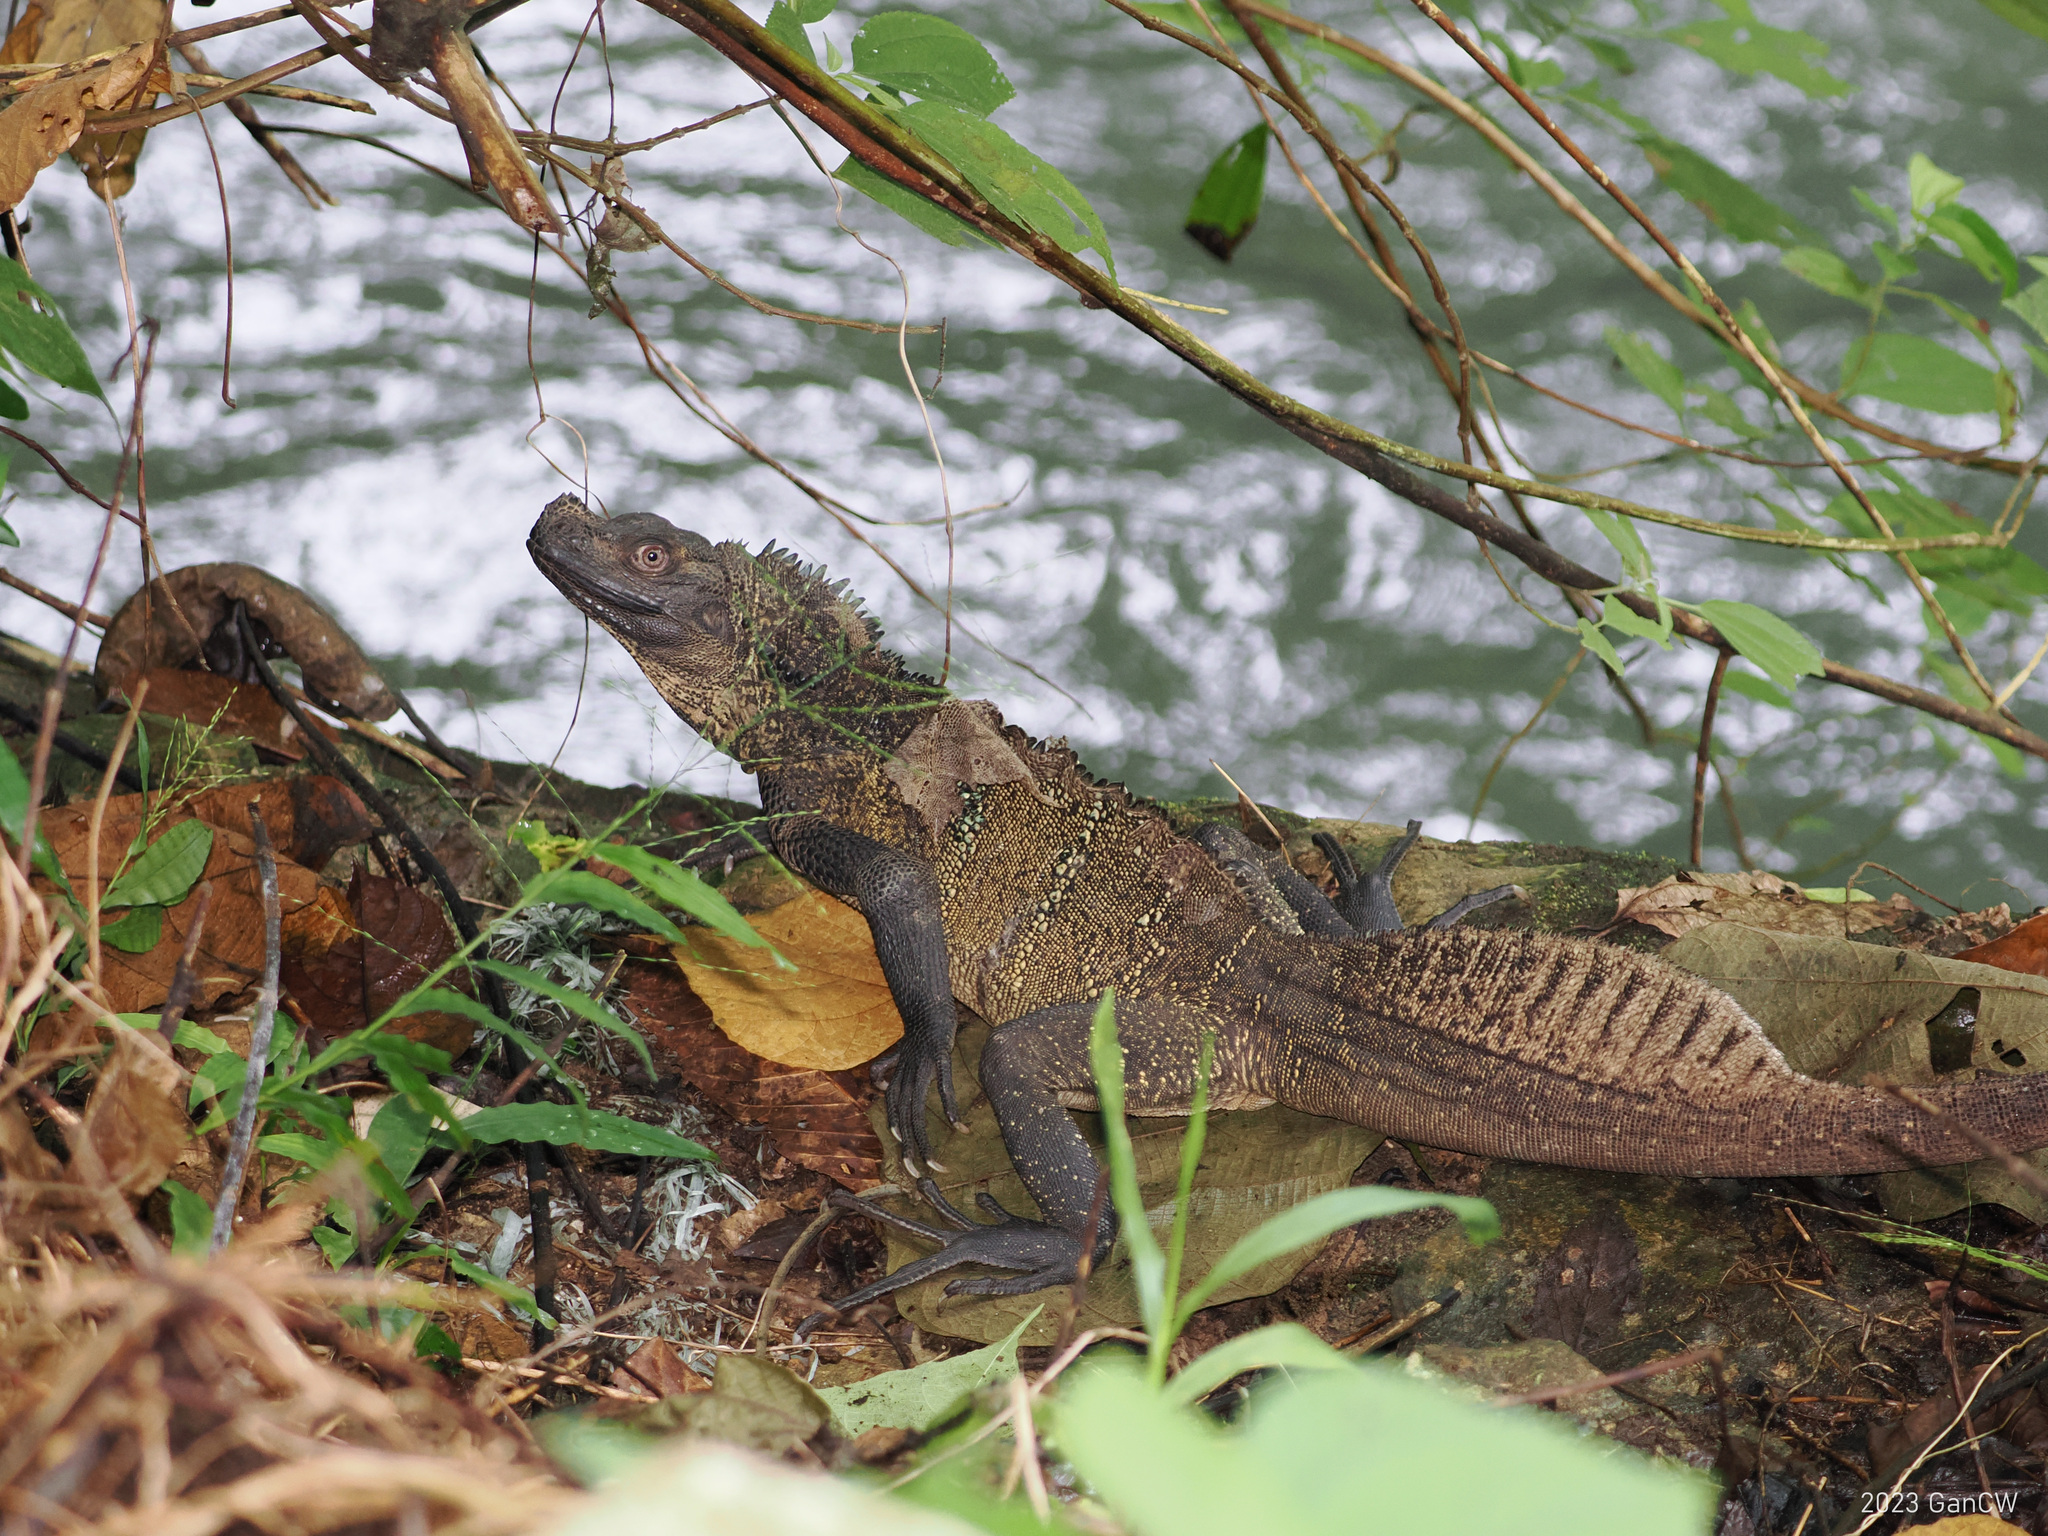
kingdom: Animalia
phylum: Chordata
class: Squamata
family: Agamidae
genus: Hydrosaurus
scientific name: Hydrosaurus celebensis
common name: (sulawesi) sailfin lizard
